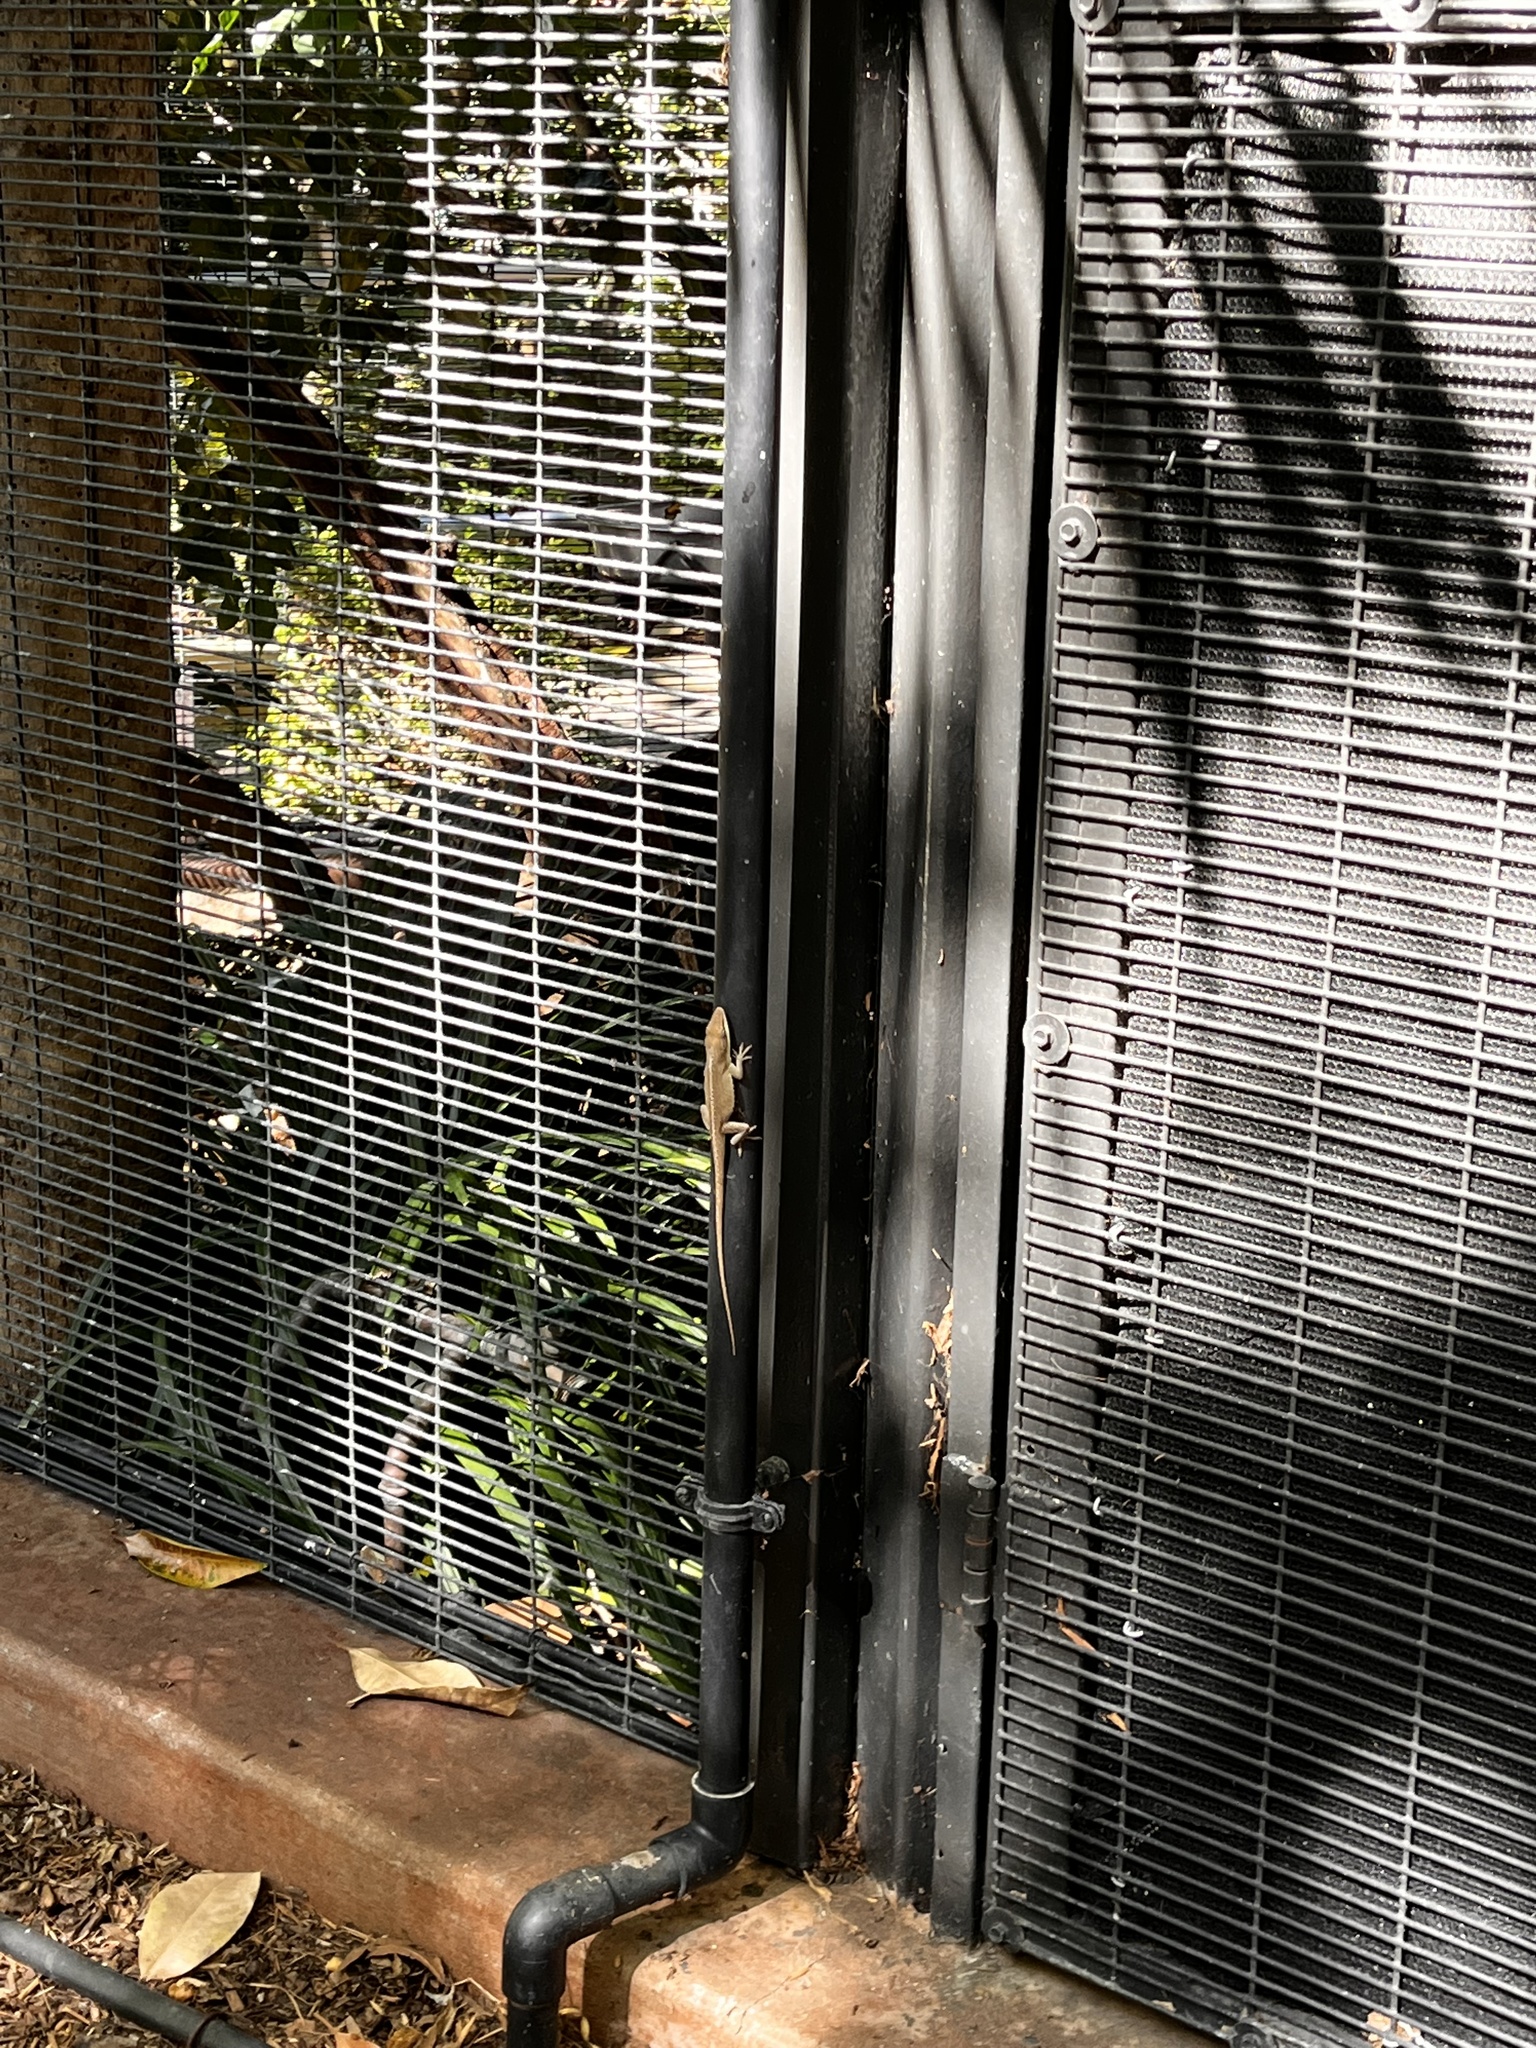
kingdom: Animalia
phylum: Chordata
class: Squamata
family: Dactyloidae
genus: Anolis
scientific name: Anolis carolinensis
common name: Green anole
